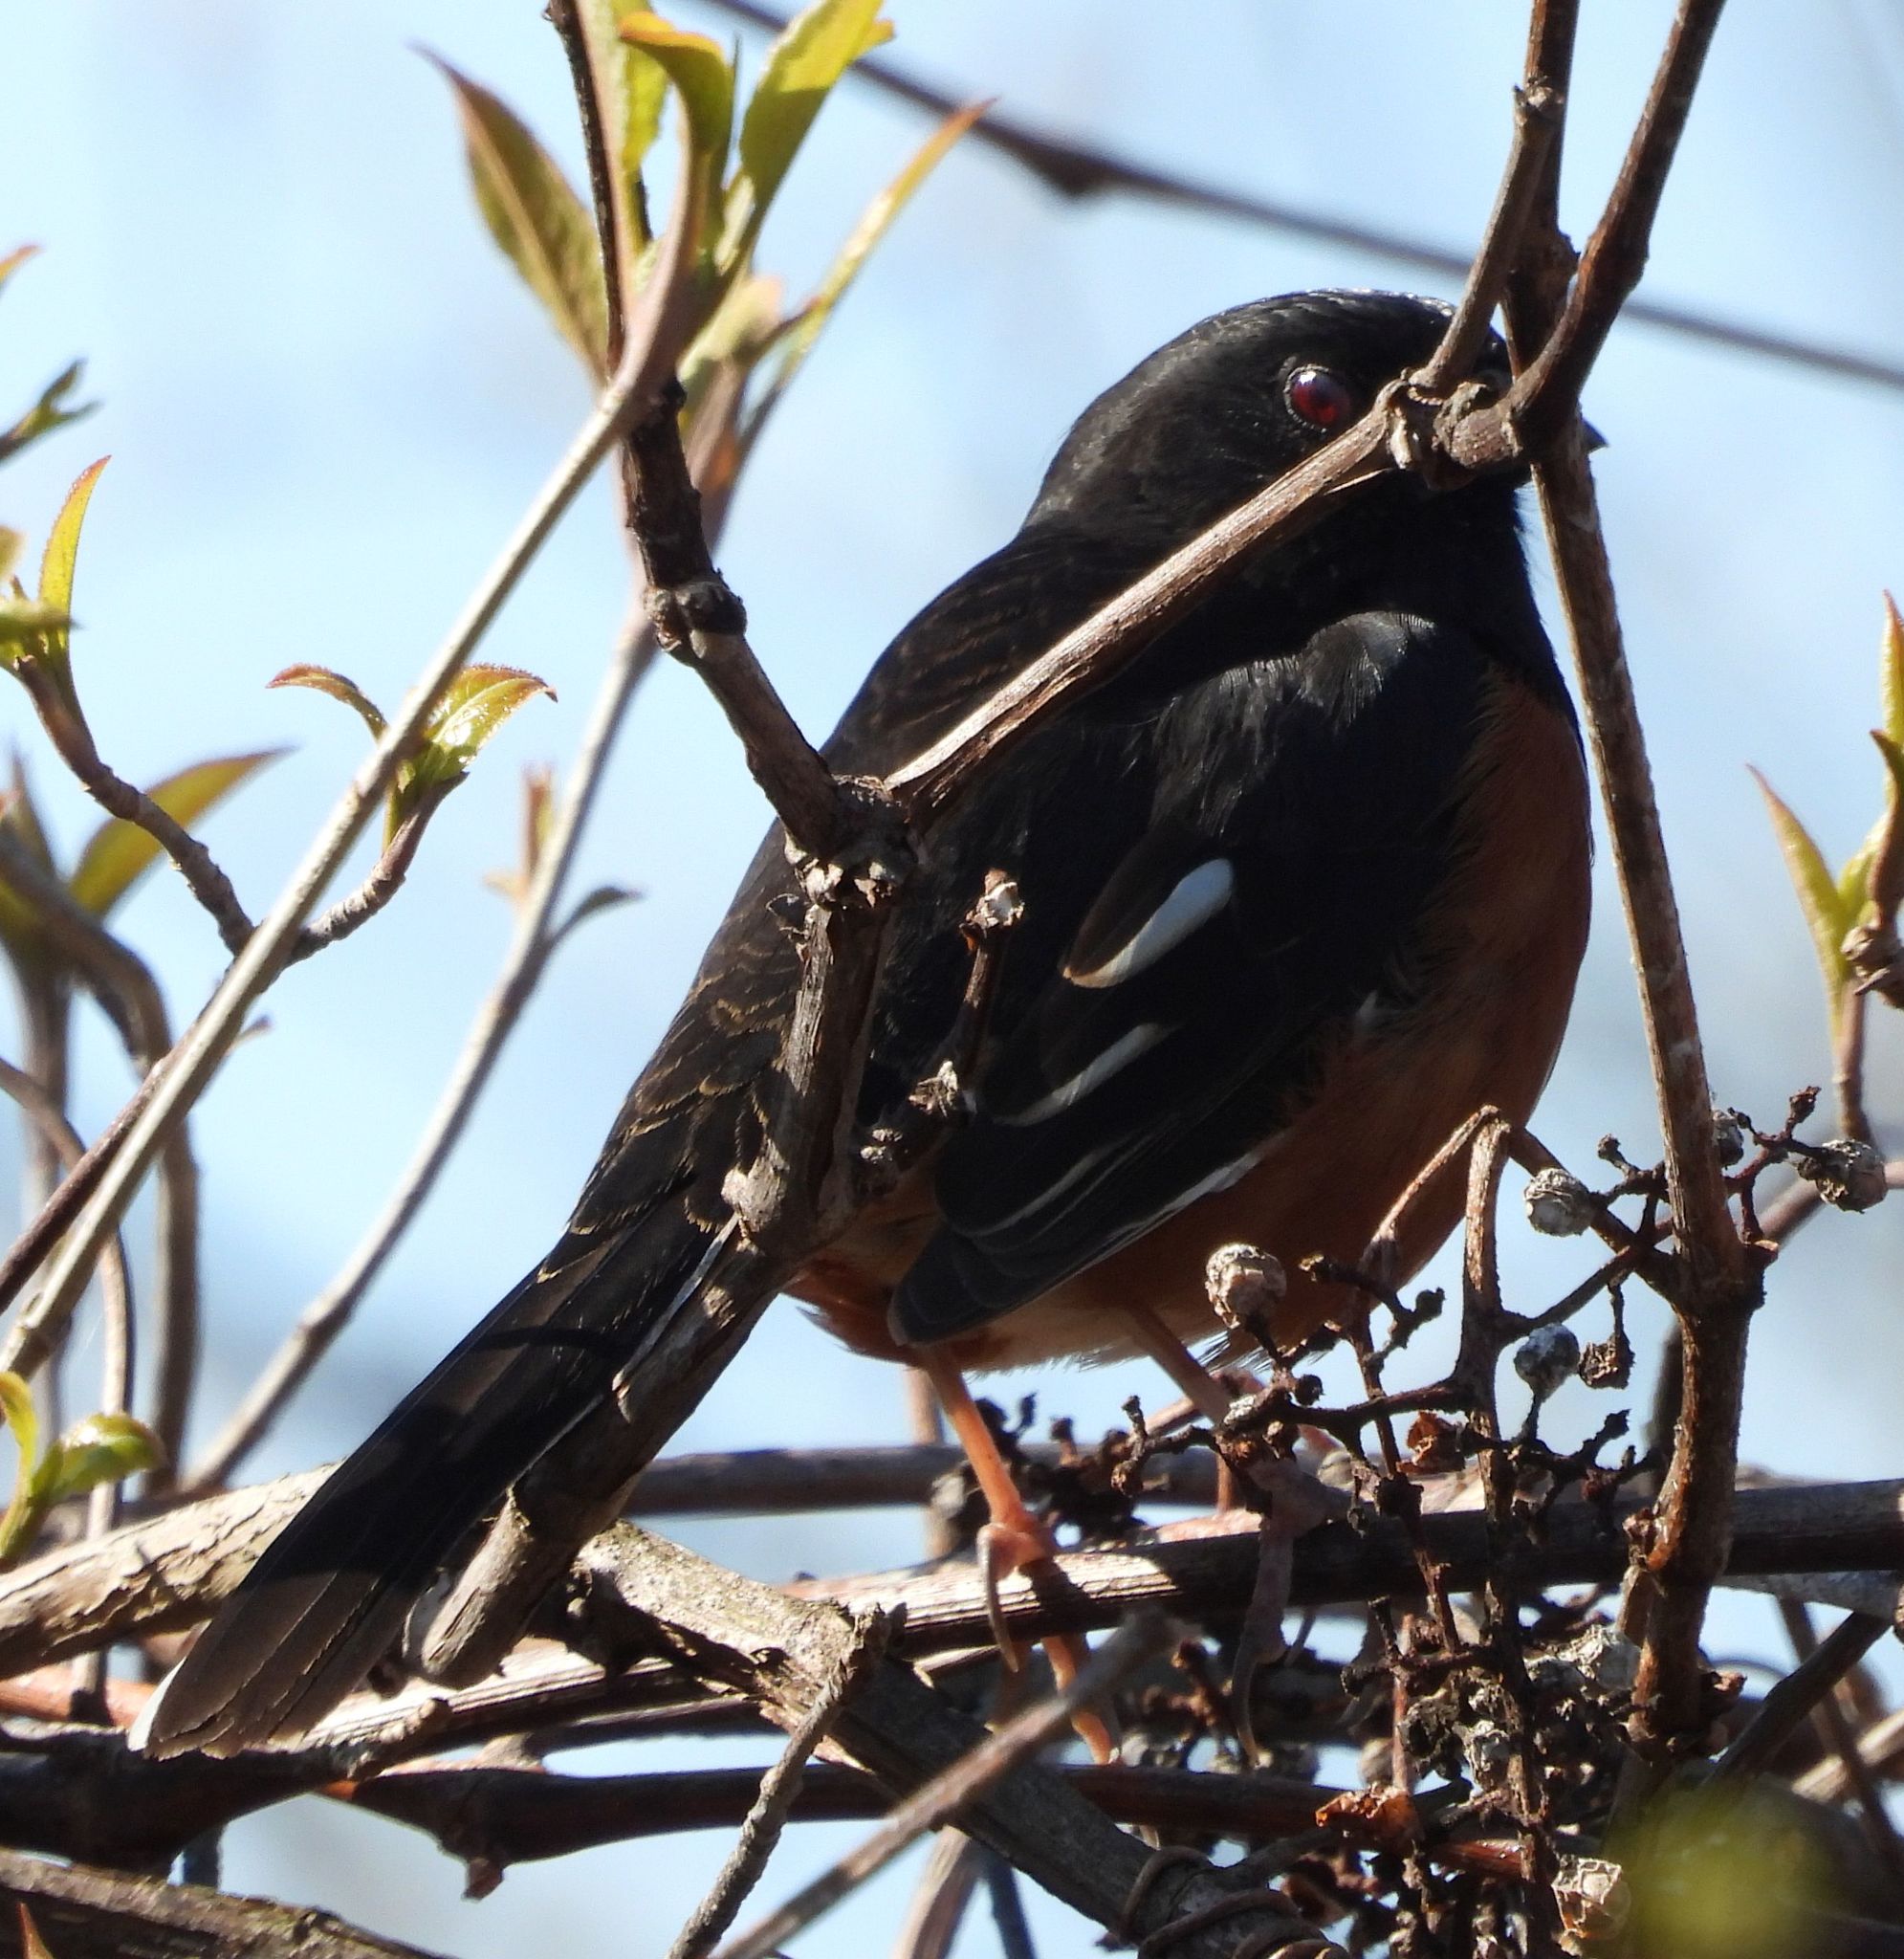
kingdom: Animalia
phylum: Chordata
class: Aves
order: Passeriformes
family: Passerellidae
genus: Pipilo
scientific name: Pipilo erythrophthalmus
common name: Eastern towhee
